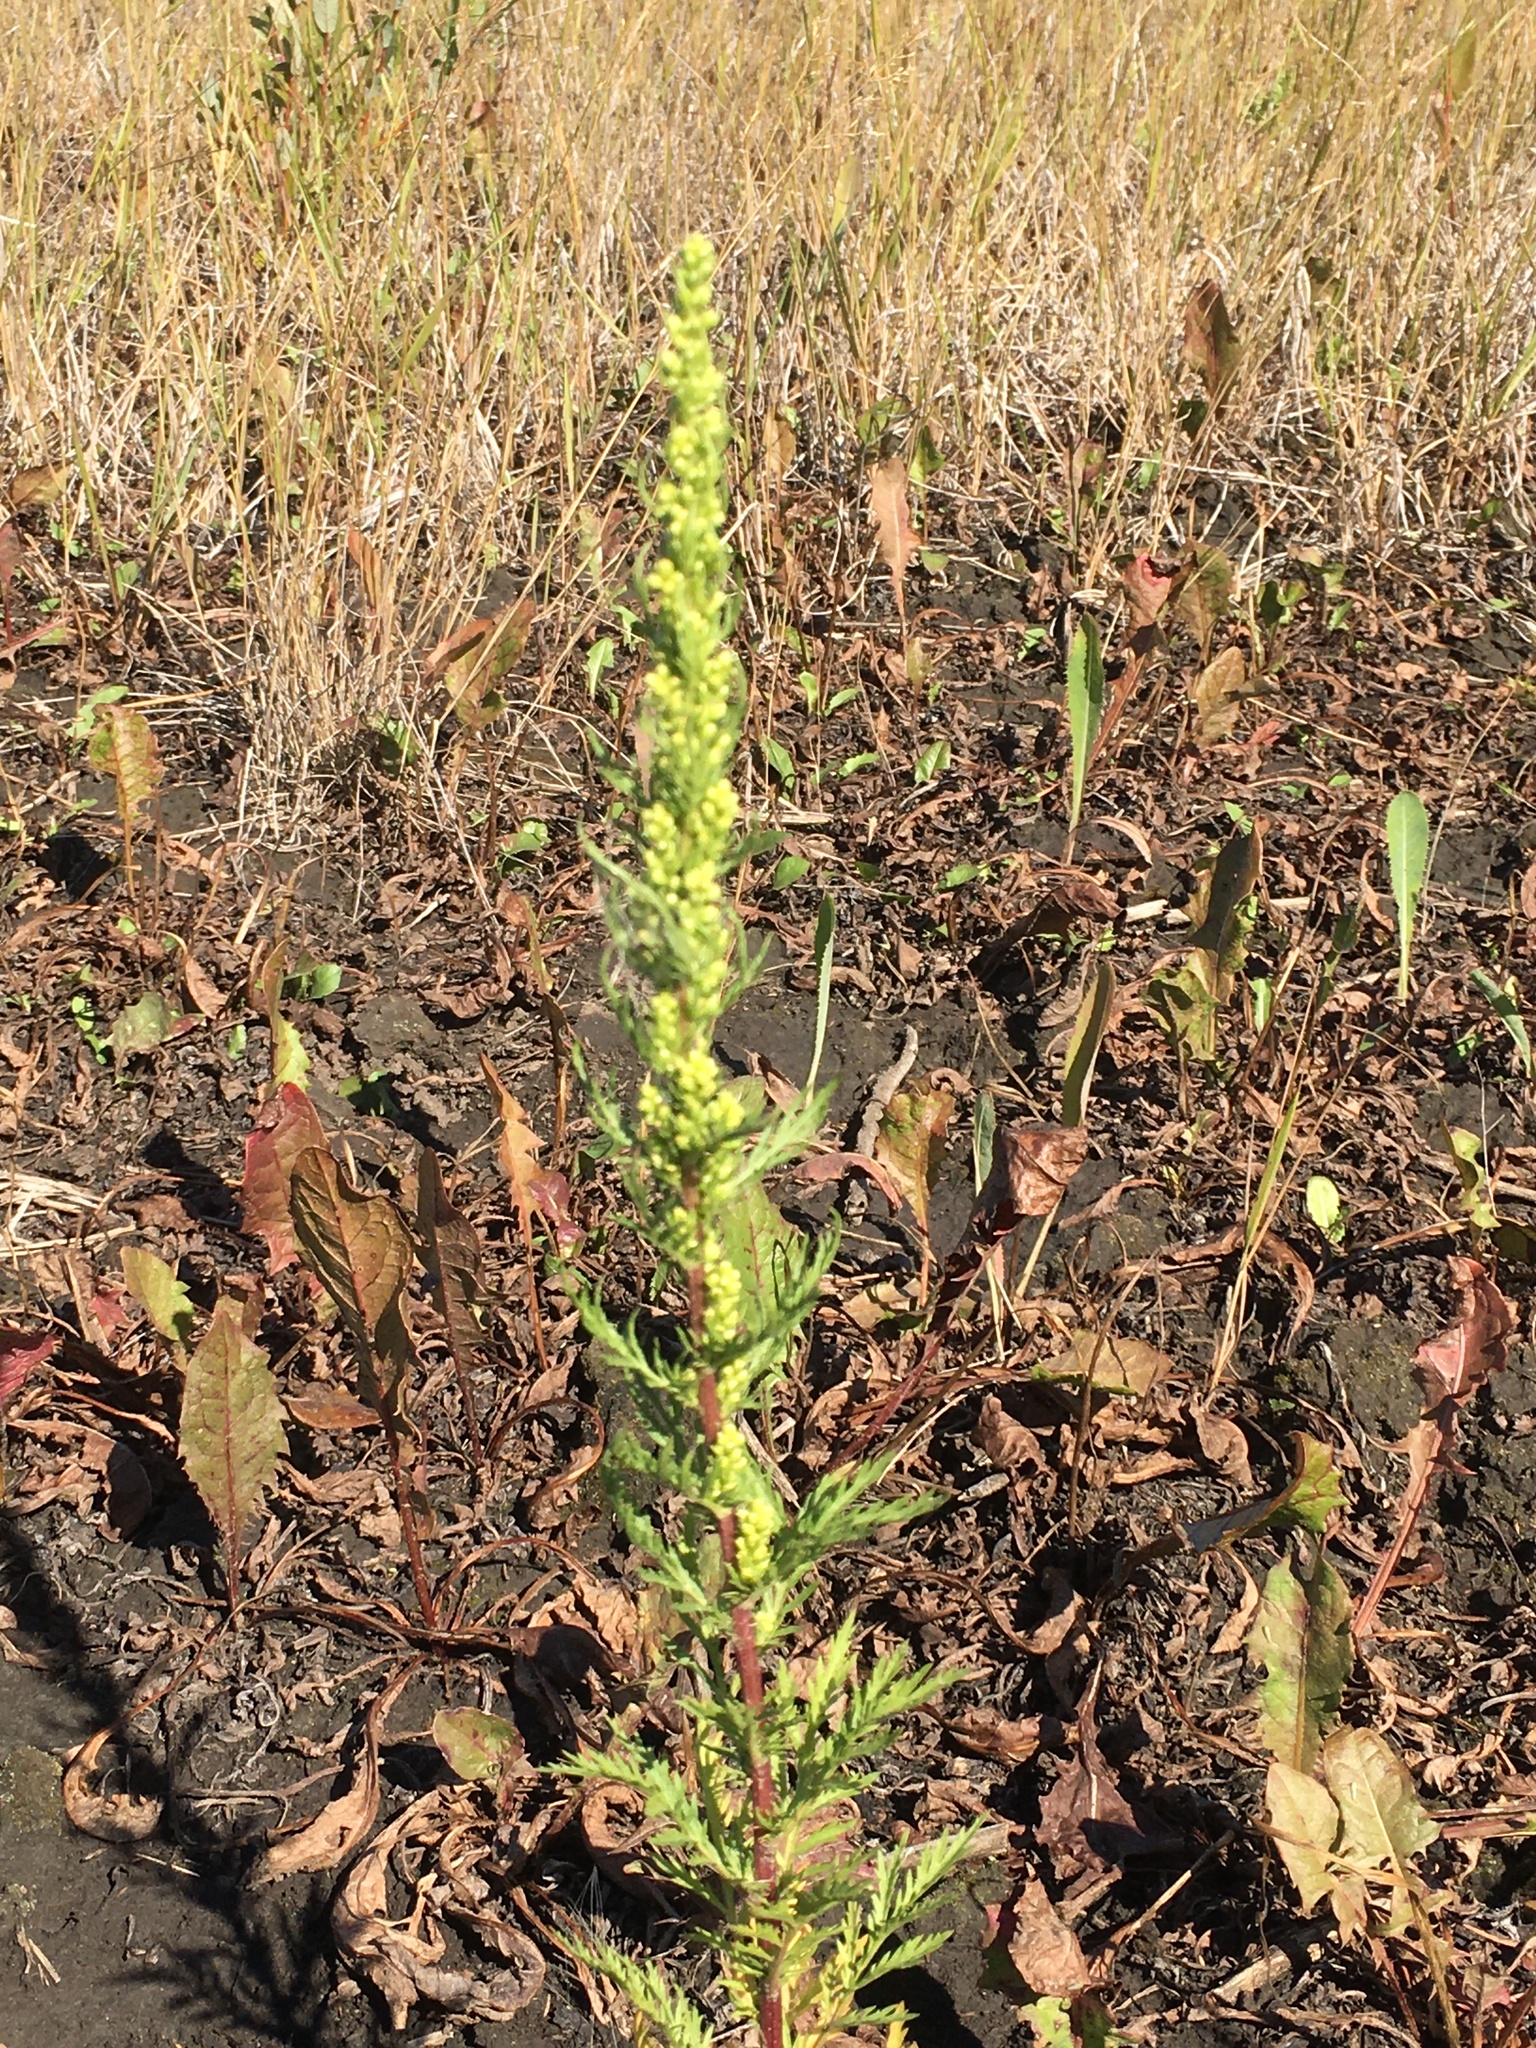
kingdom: Plantae
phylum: Tracheophyta
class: Magnoliopsida
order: Asterales
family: Asteraceae
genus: Artemisia
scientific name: Artemisia campestris
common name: Field wormwood
